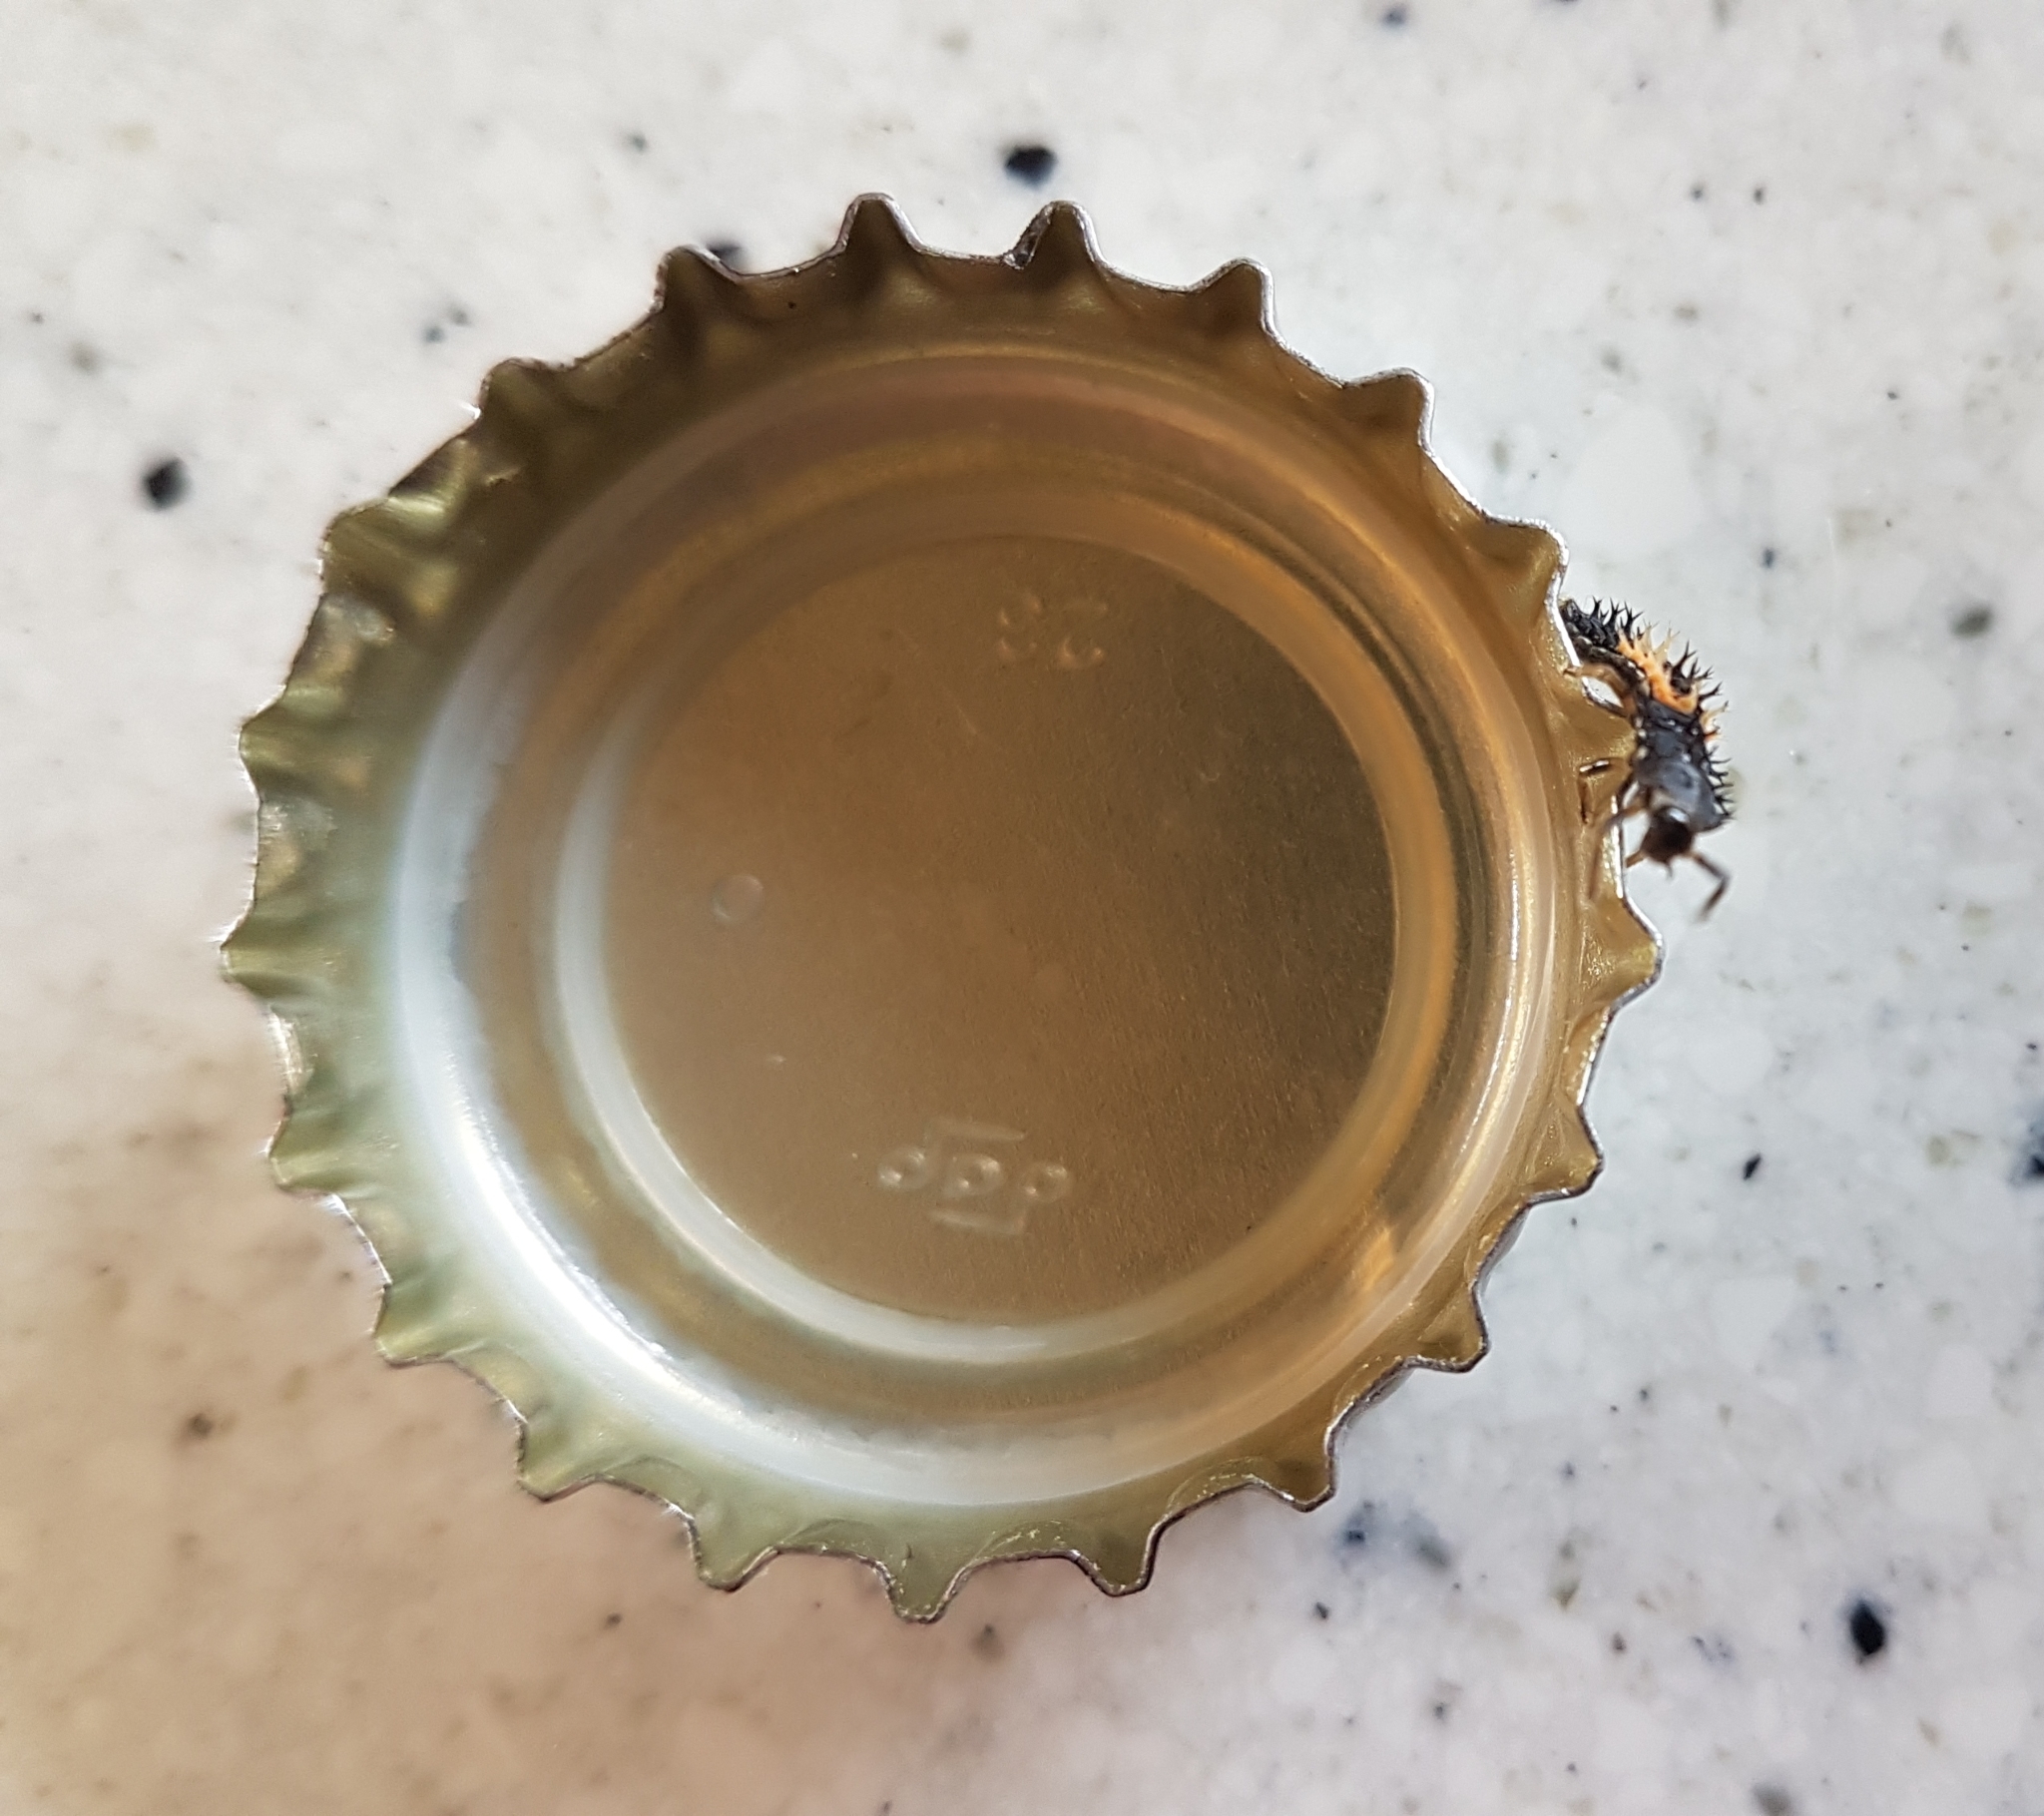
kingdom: Animalia
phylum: Arthropoda
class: Insecta
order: Coleoptera
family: Coccinellidae
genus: Harmonia
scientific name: Harmonia axyridis
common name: Harlequin ladybird
